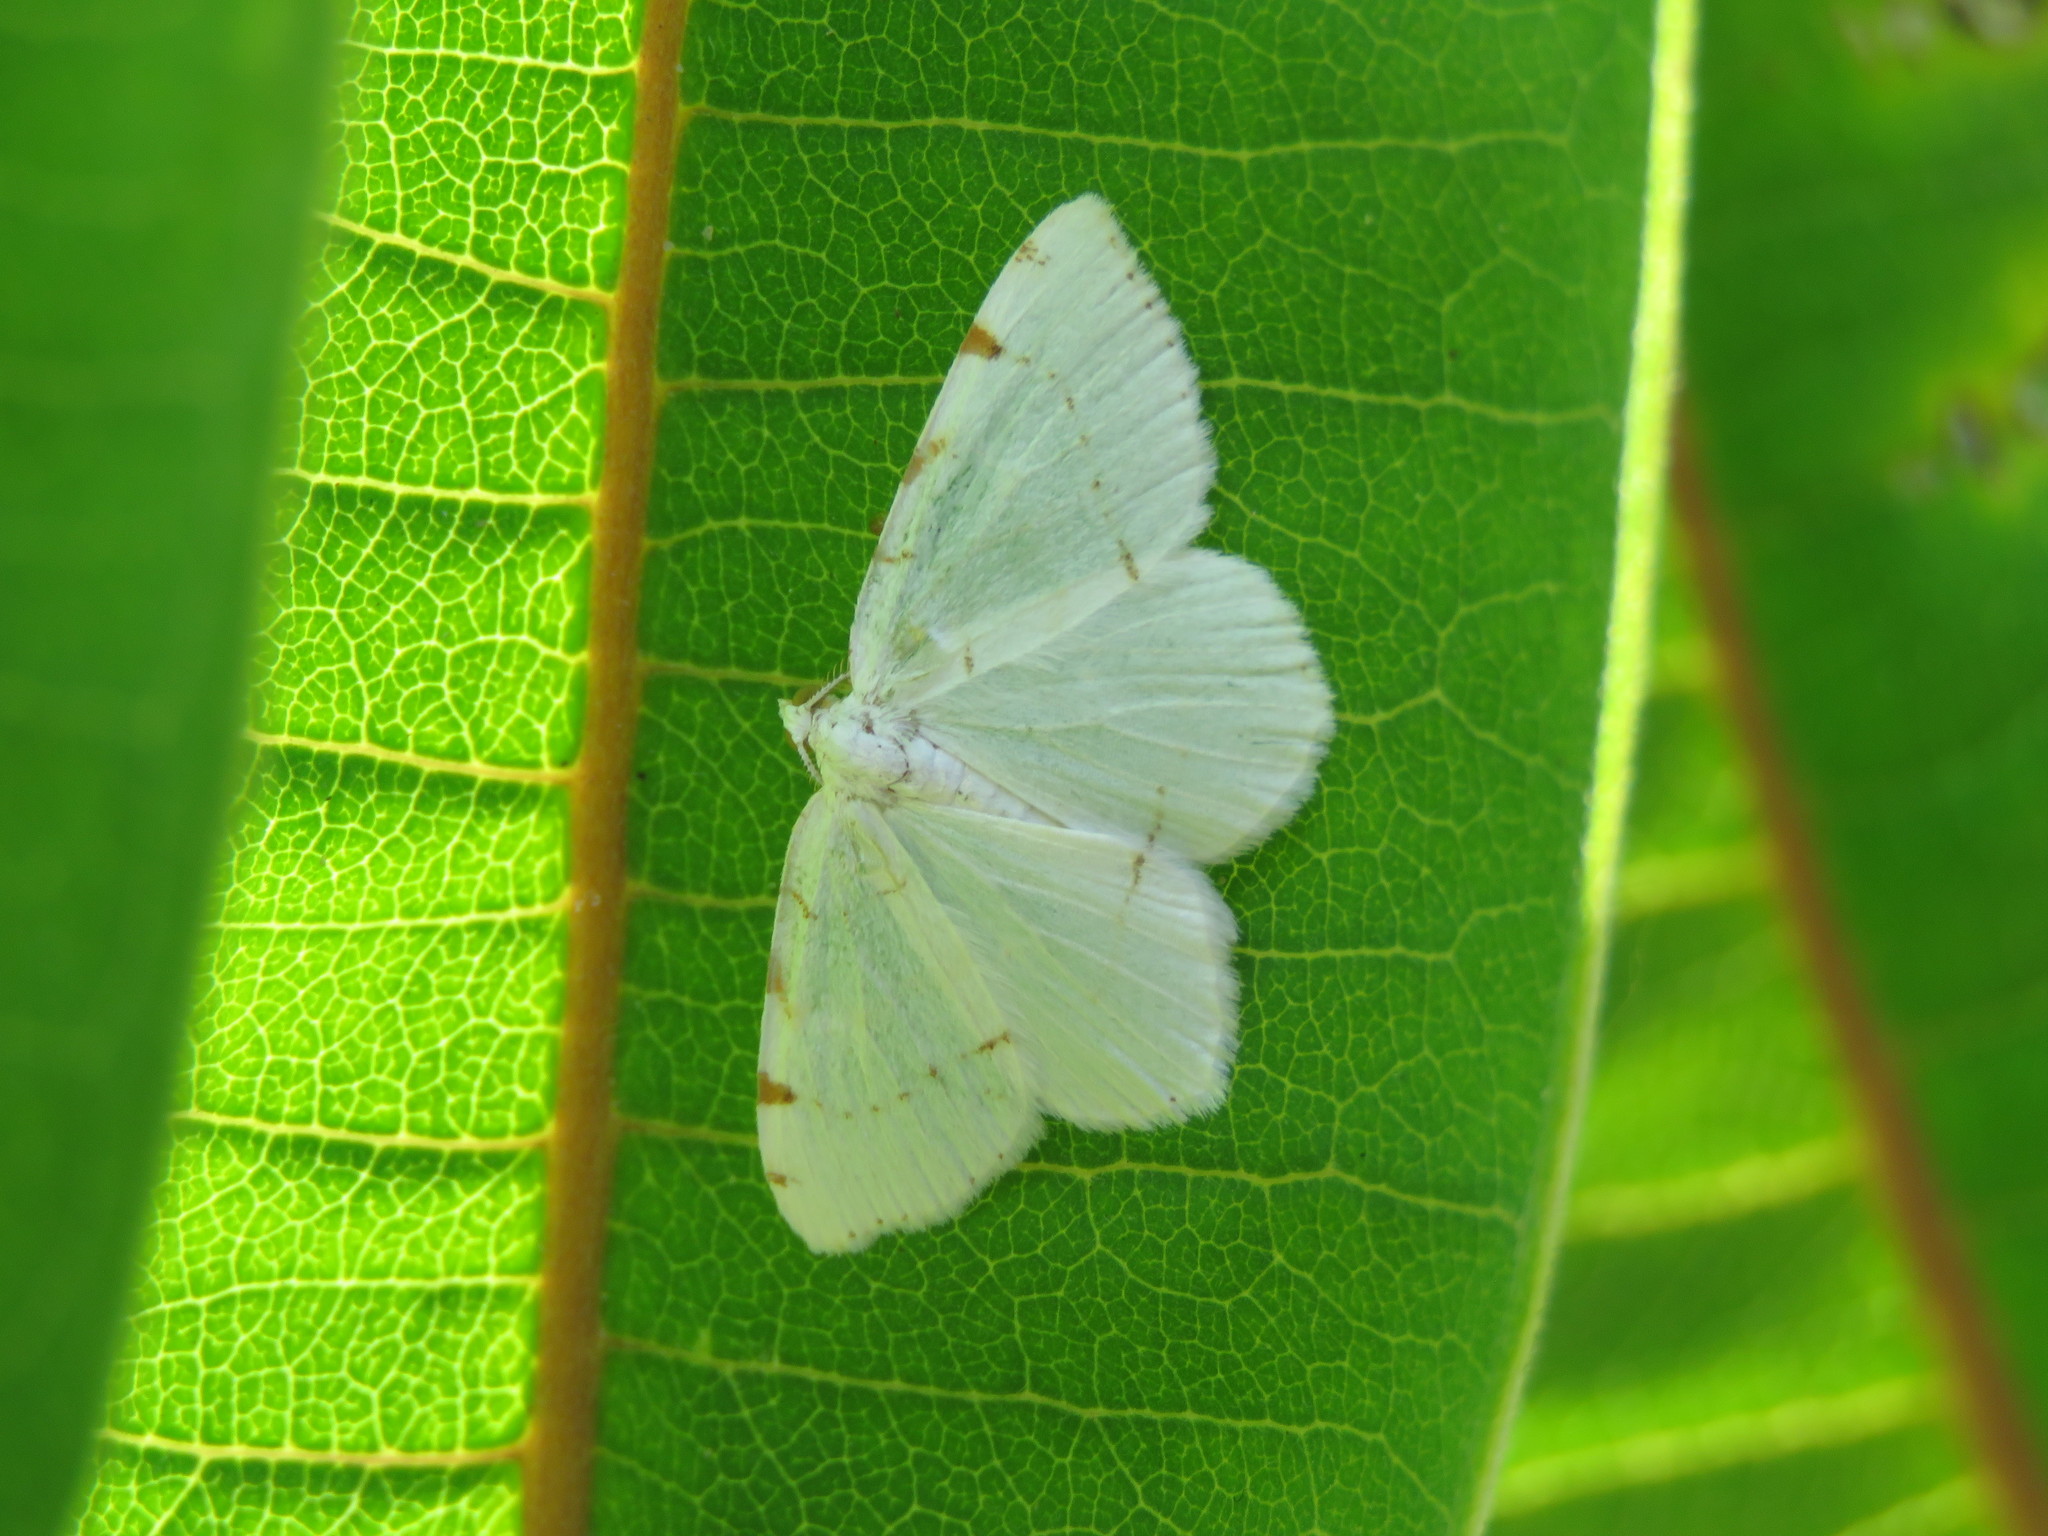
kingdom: Animalia
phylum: Arthropoda
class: Insecta
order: Lepidoptera
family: Geometridae
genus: Macaria
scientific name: Macaria pustularia
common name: Lesser maple spanworm moth
